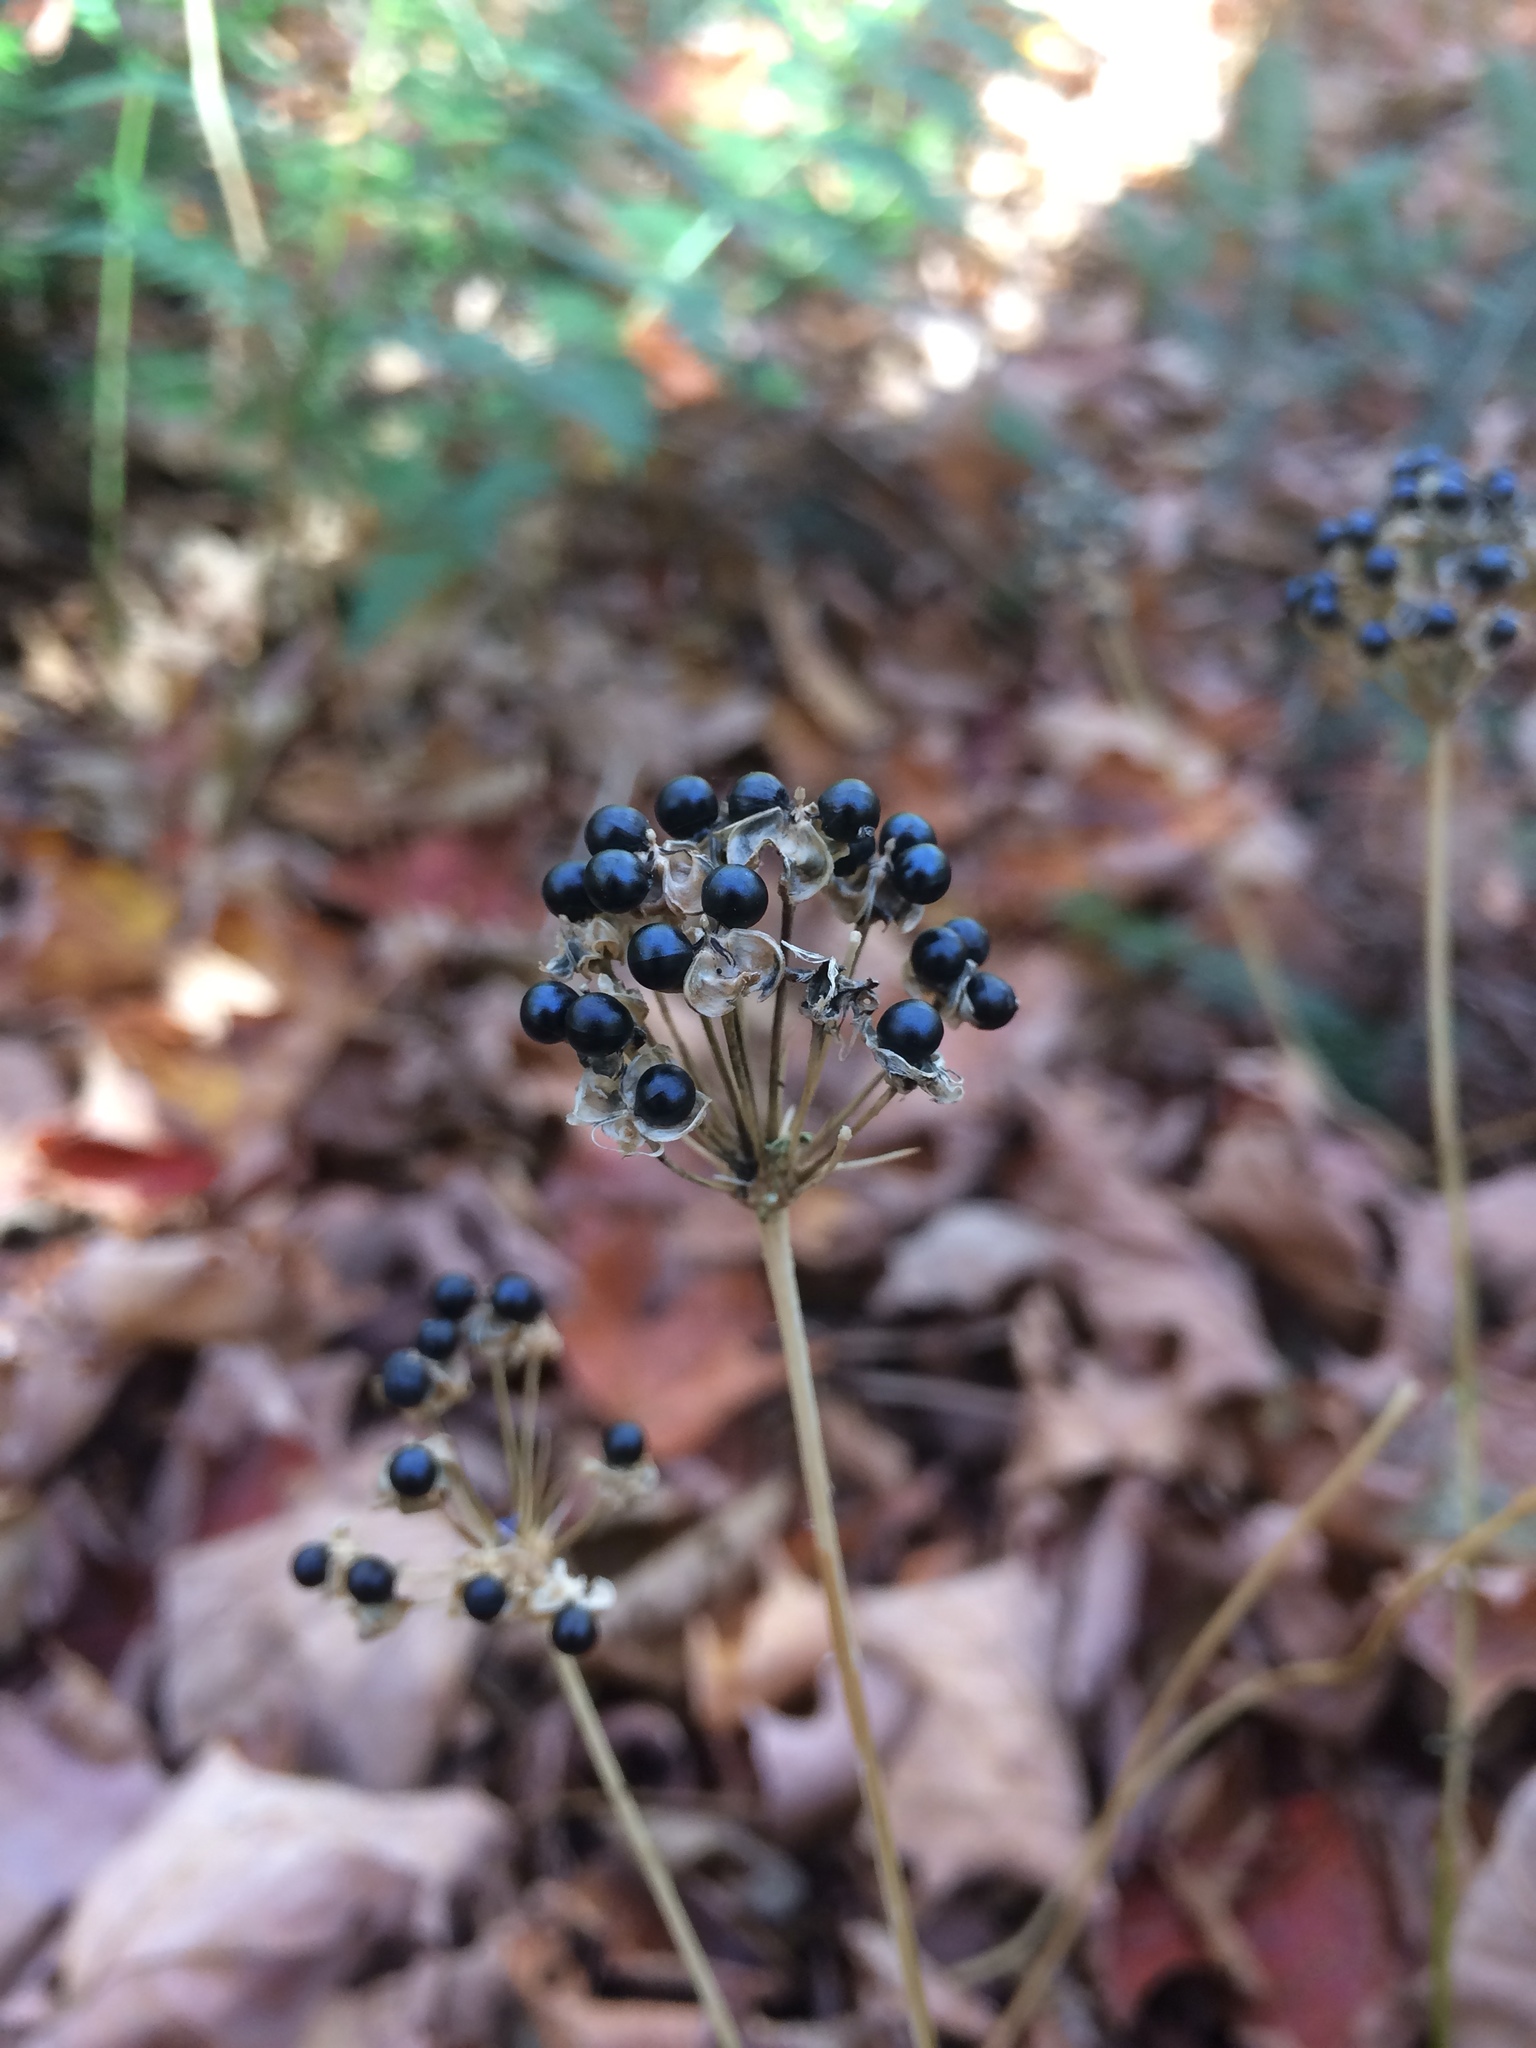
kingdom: Plantae
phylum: Tracheophyta
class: Liliopsida
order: Asparagales
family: Amaryllidaceae
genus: Allium
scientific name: Allium tricoccum
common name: Ramp
